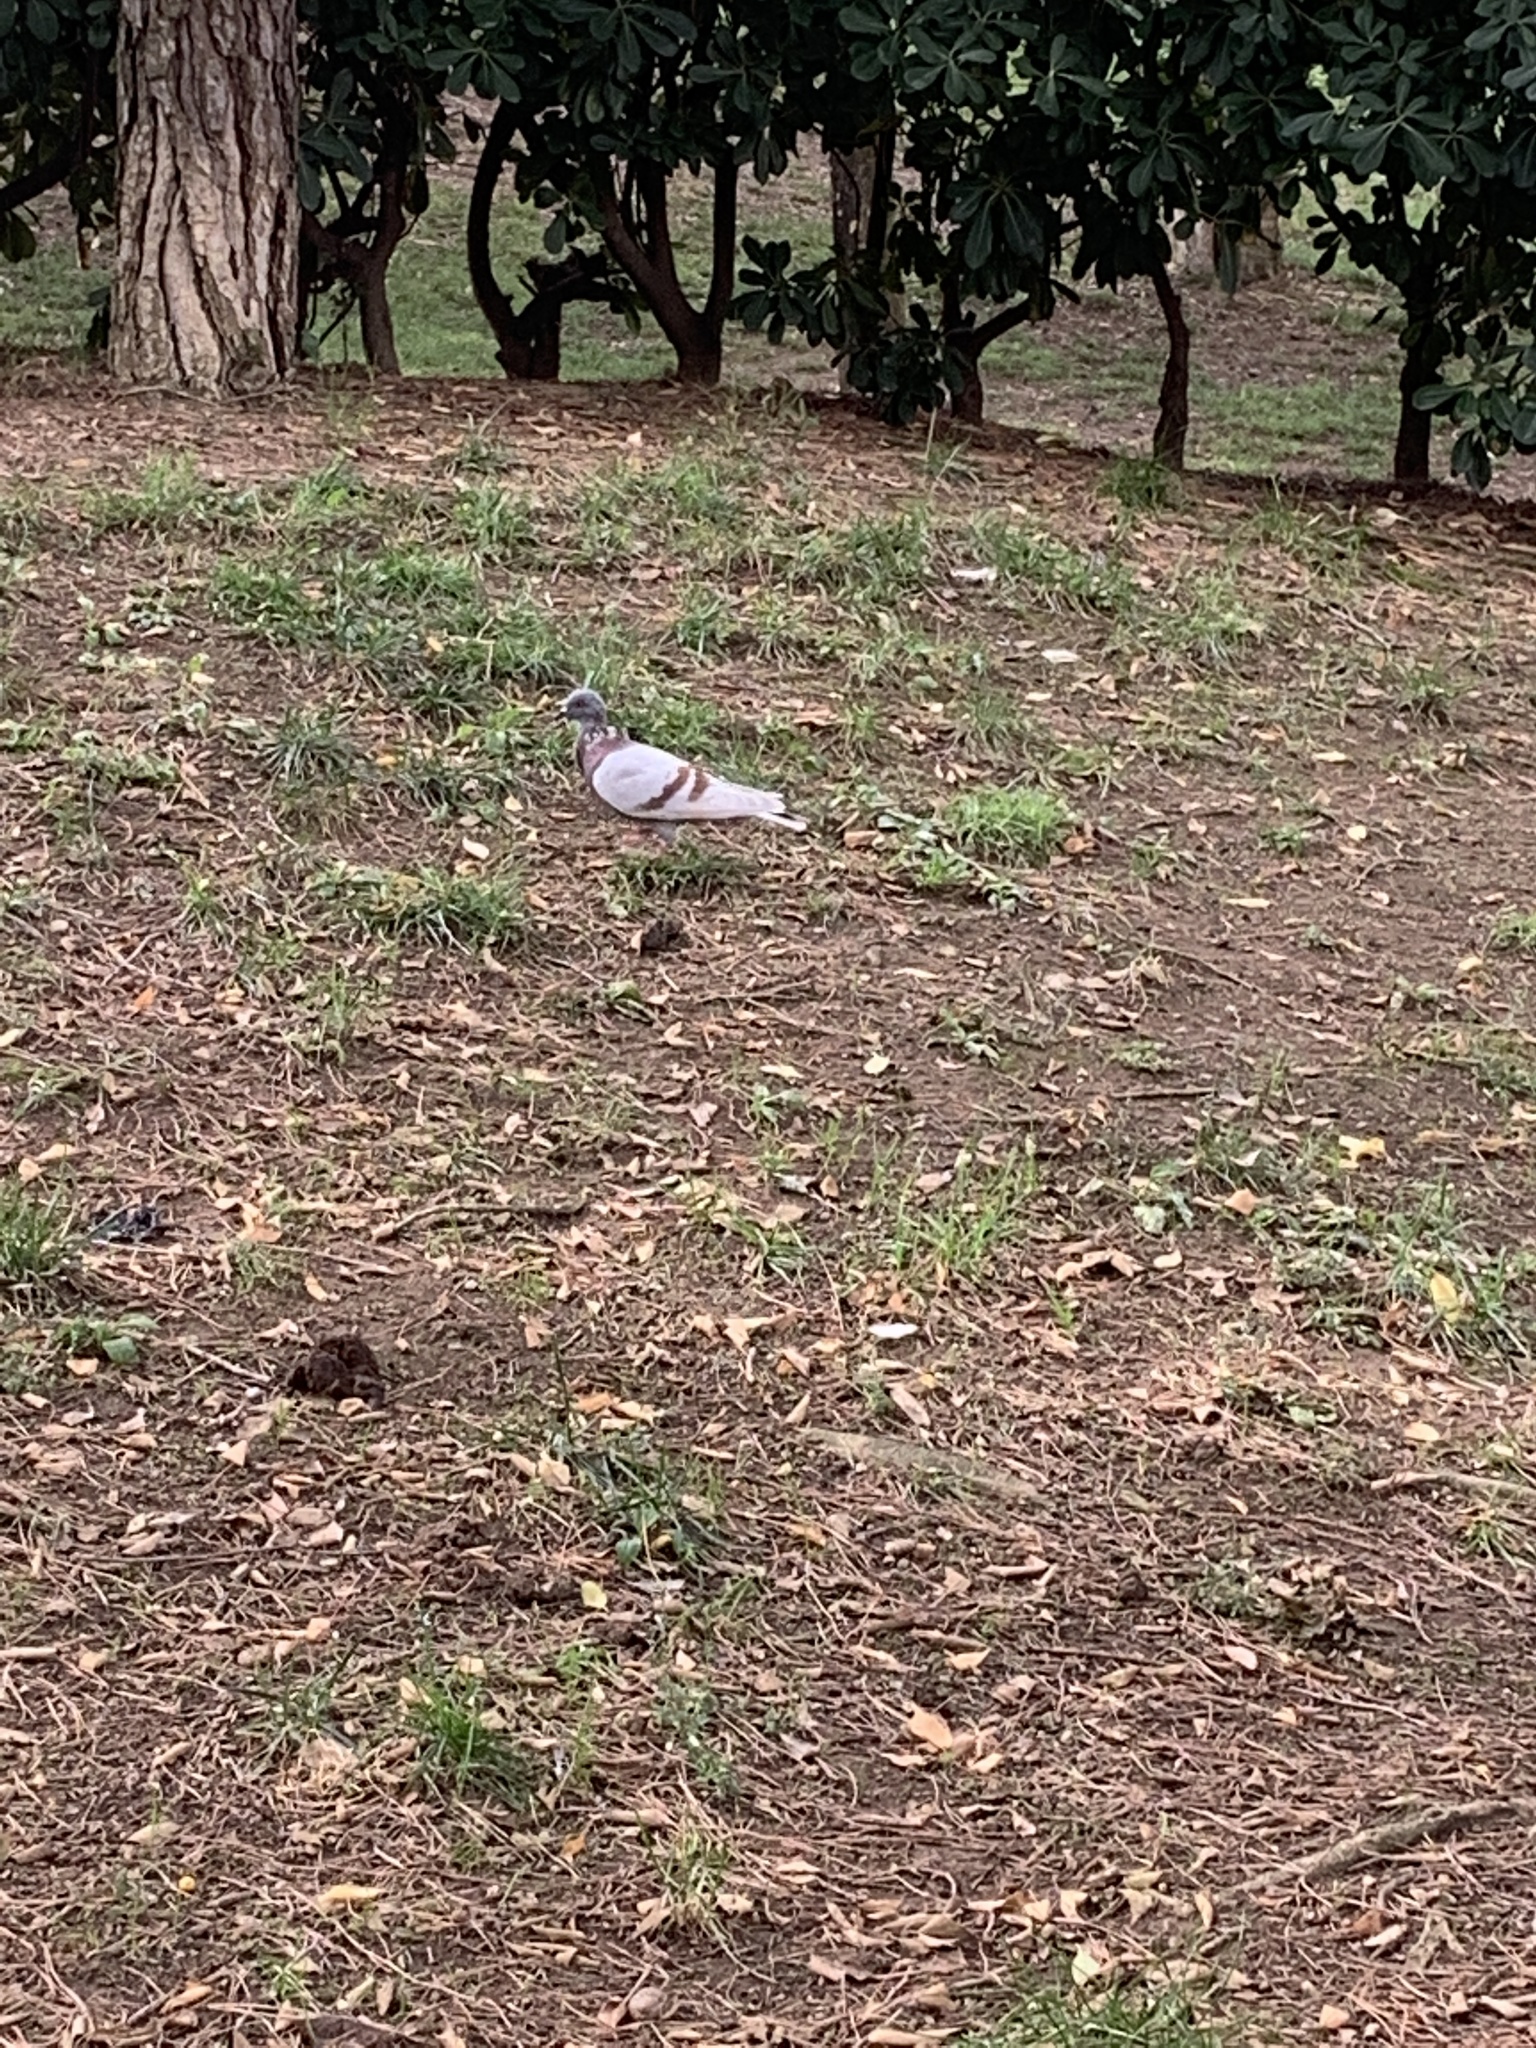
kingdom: Animalia
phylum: Chordata
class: Aves
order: Columbiformes
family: Columbidae
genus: Columba
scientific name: Columba livia
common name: Rock pigeon
